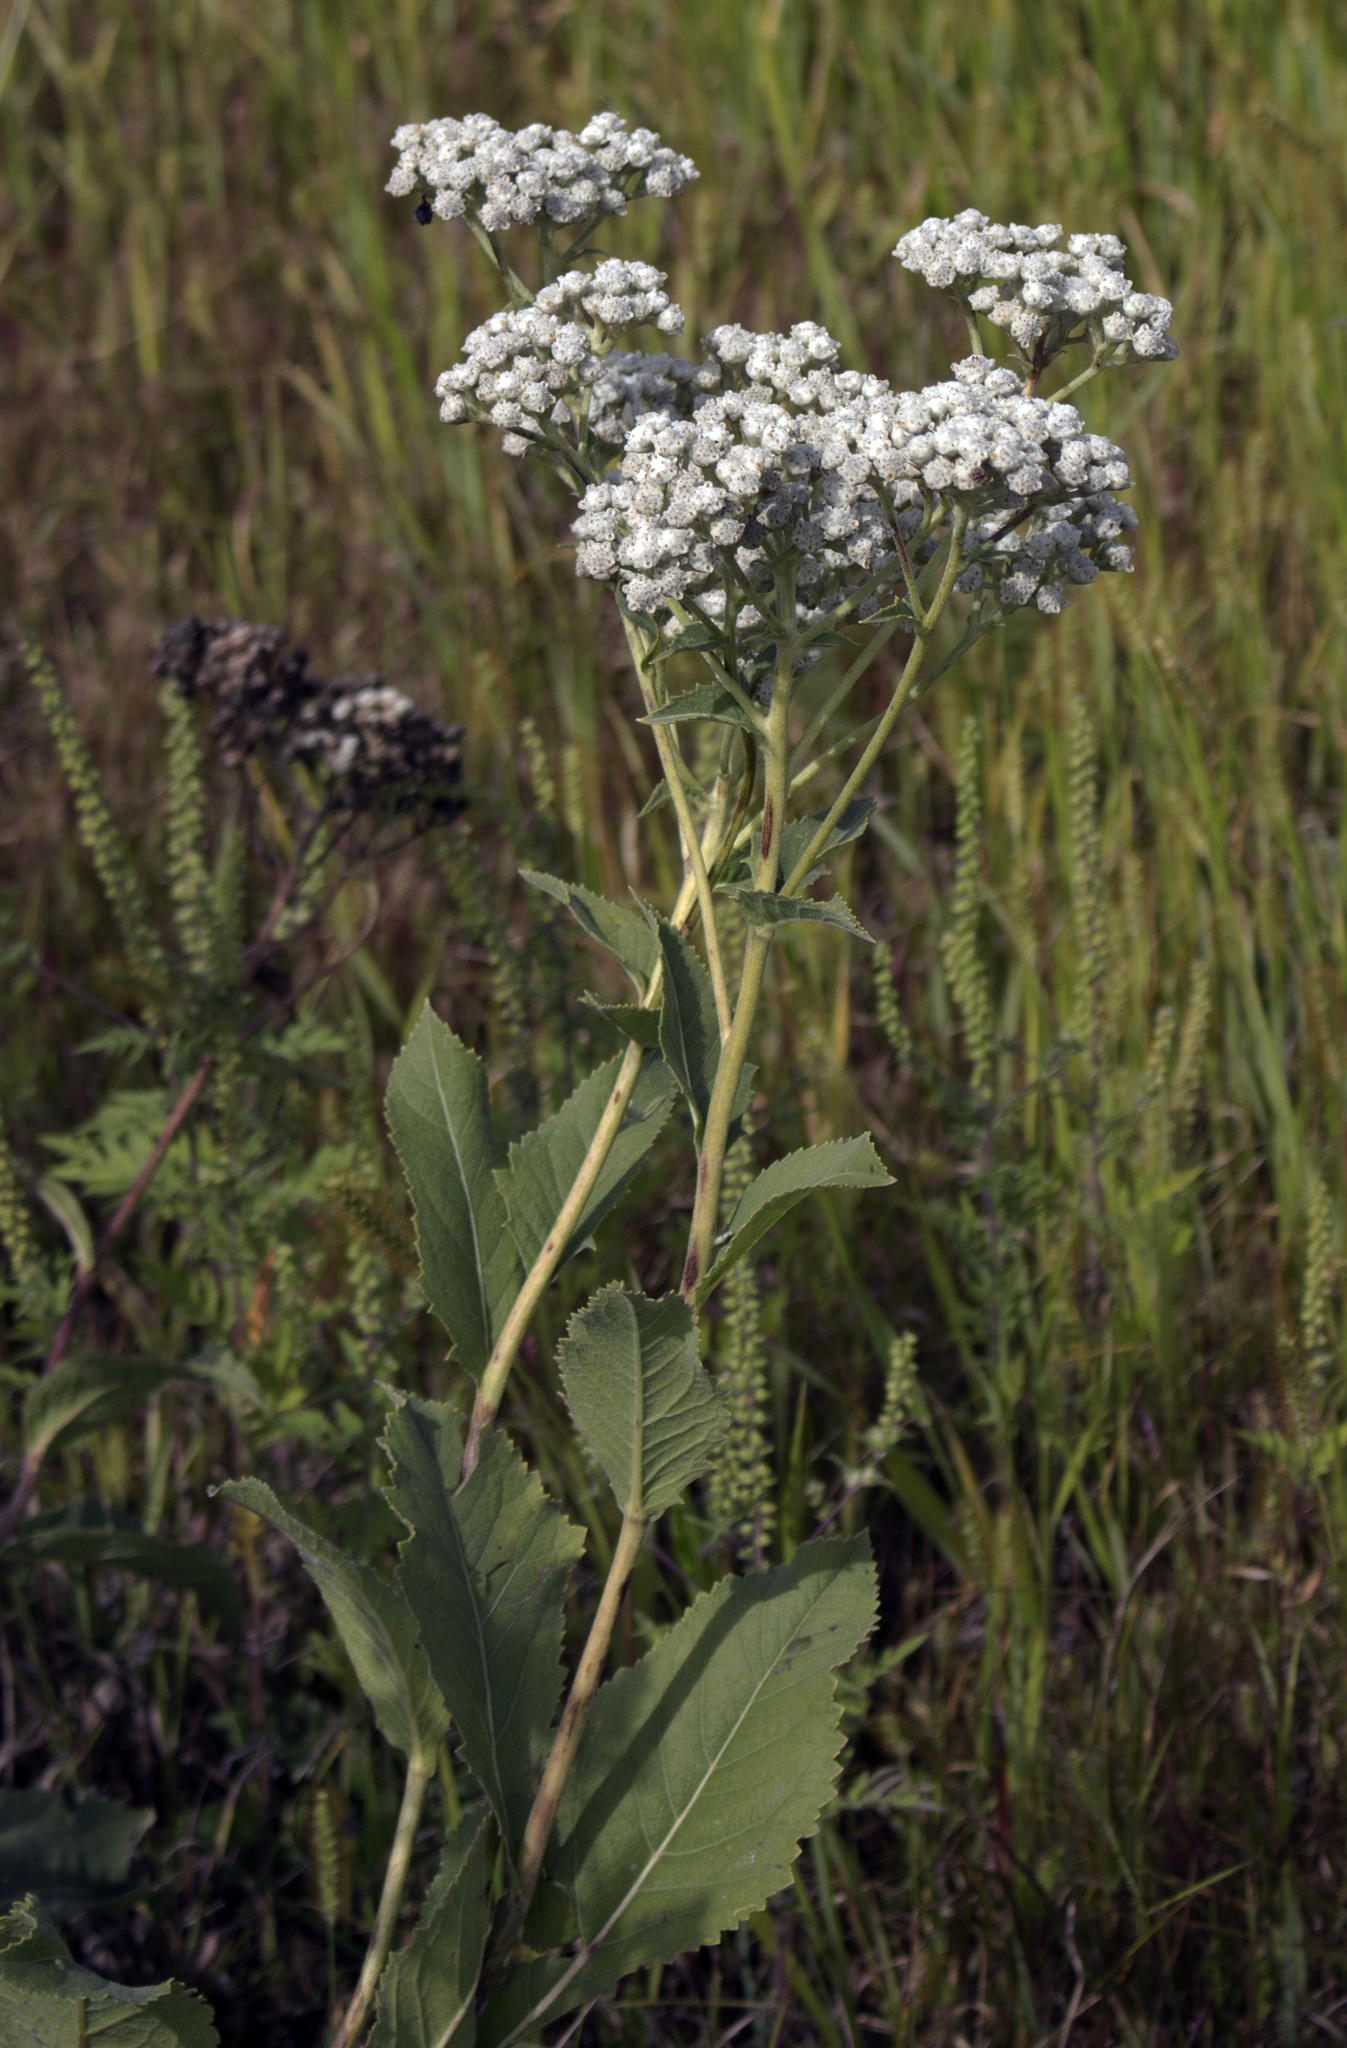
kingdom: Plantae
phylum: Tracheophyta
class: Magnoliopsida
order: Asterales
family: Asteraceae
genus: Parthenium
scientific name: Parthenium integrifolium
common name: American feverfew
